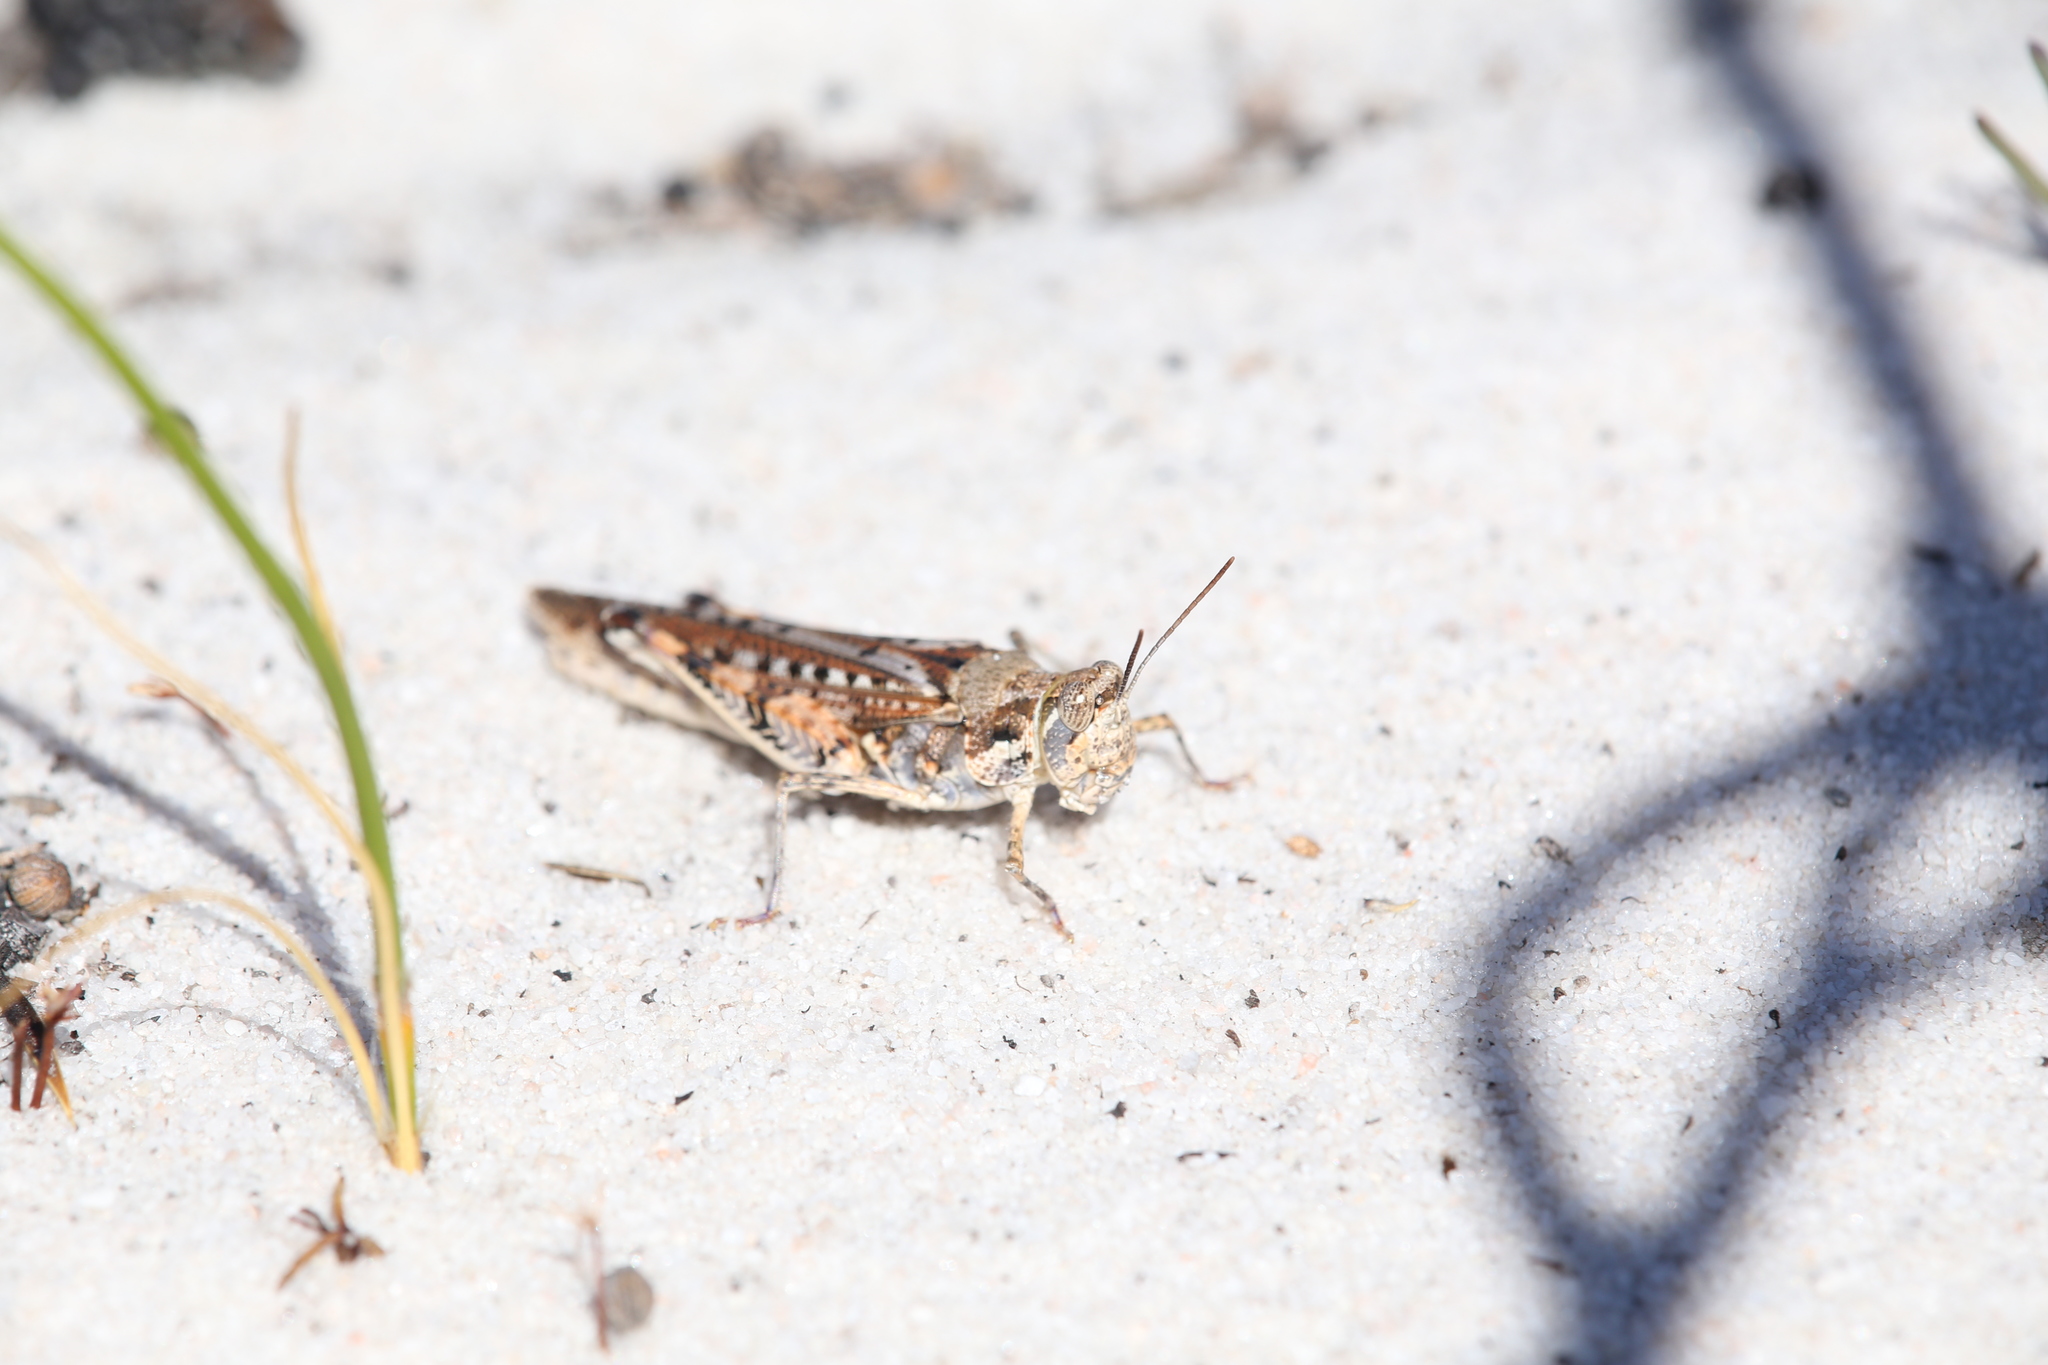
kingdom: Animalia
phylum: Arthropoda
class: Insecta
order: Orthoptera
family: Acrididae
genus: Urnisa
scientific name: Urnisa guttulosa
